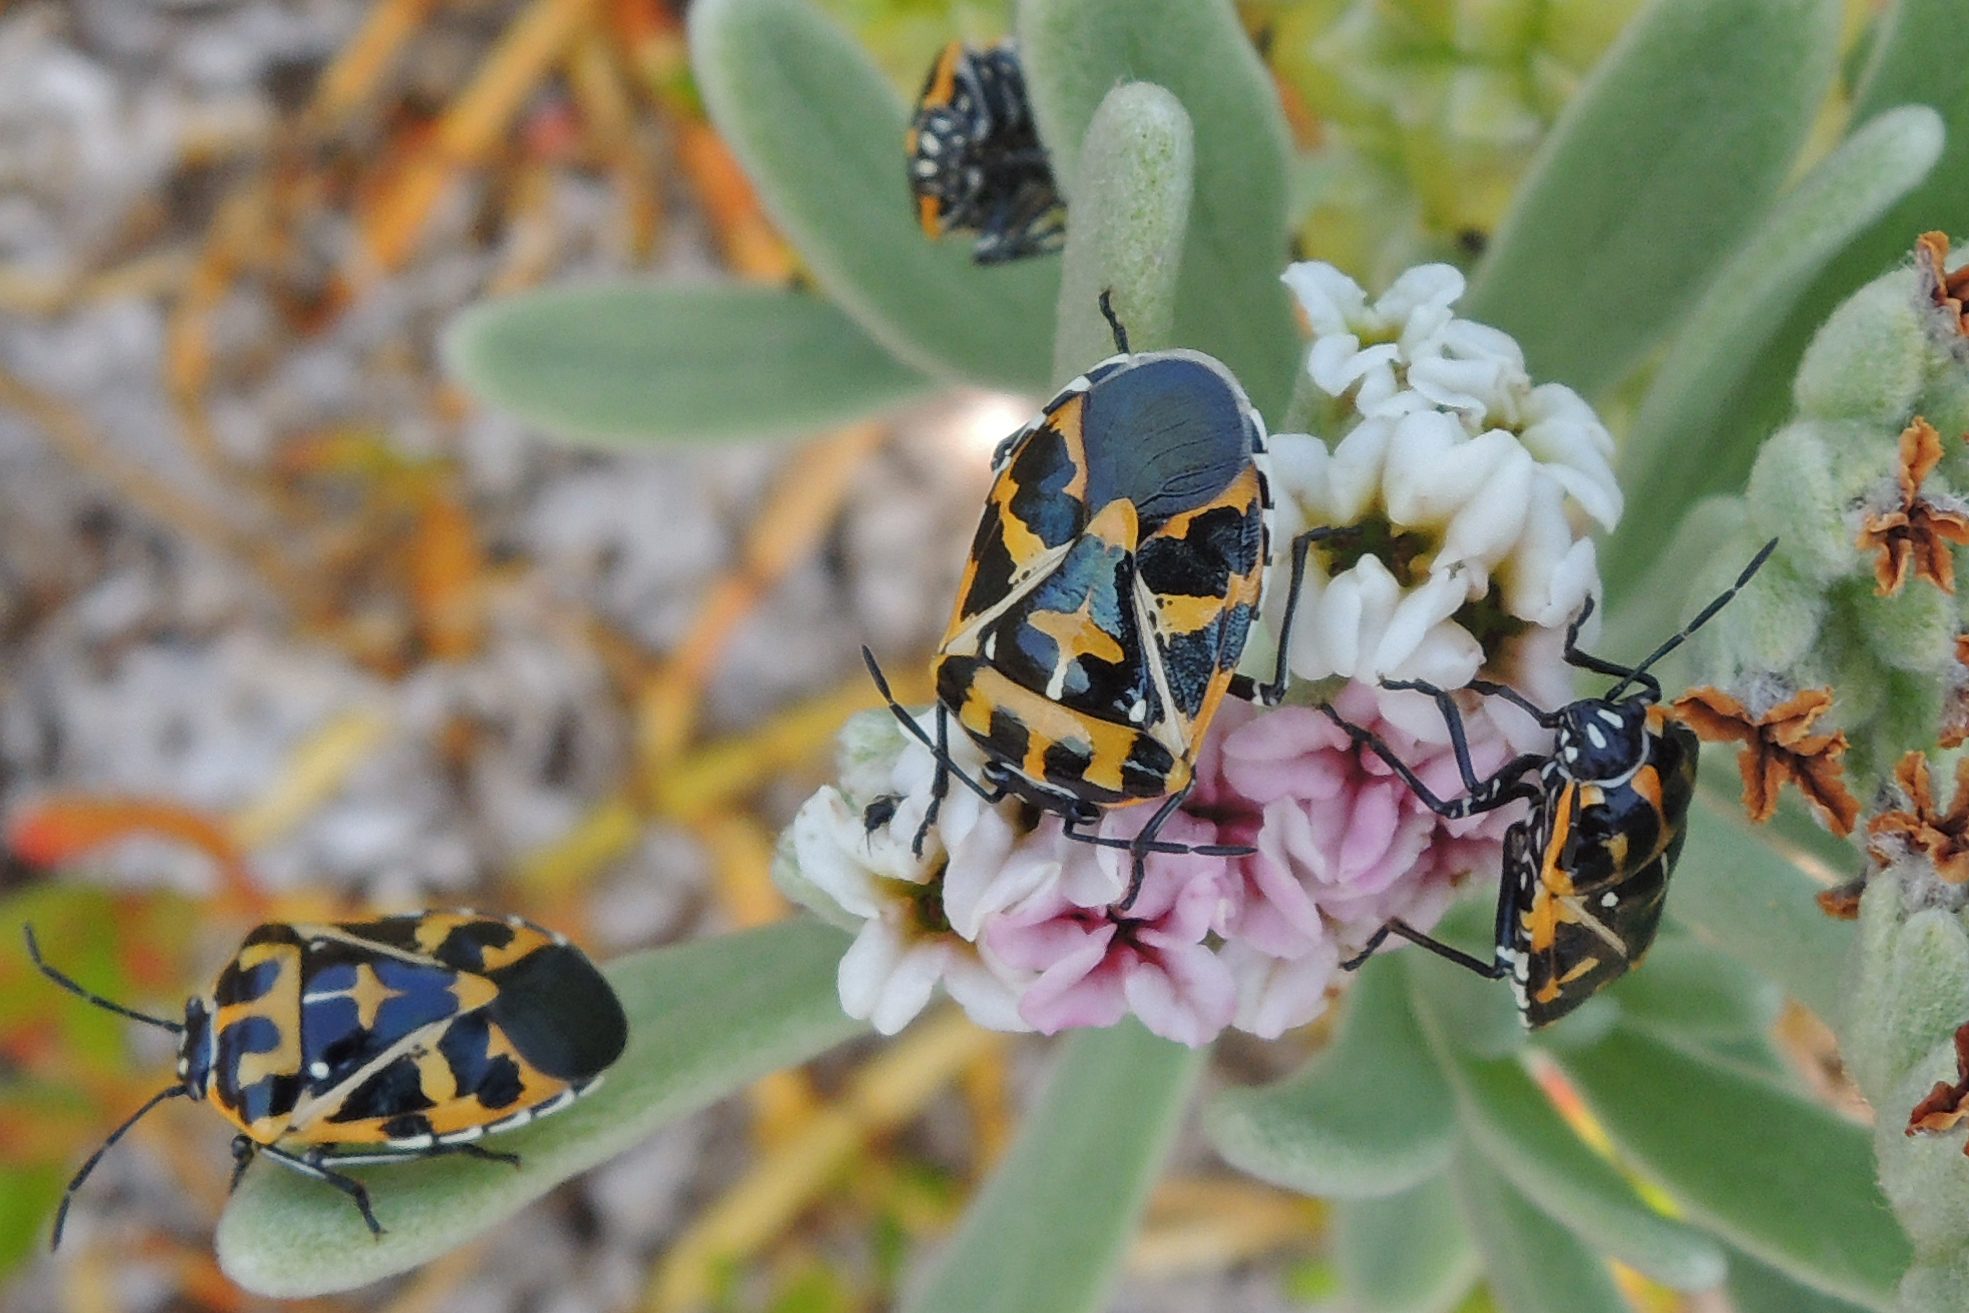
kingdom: Animalia
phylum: Arthropoda
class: Insecta
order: Hemiptera
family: Pentatomidae
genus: Murgantia
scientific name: Murgantia histrionica
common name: Harlequin bug
